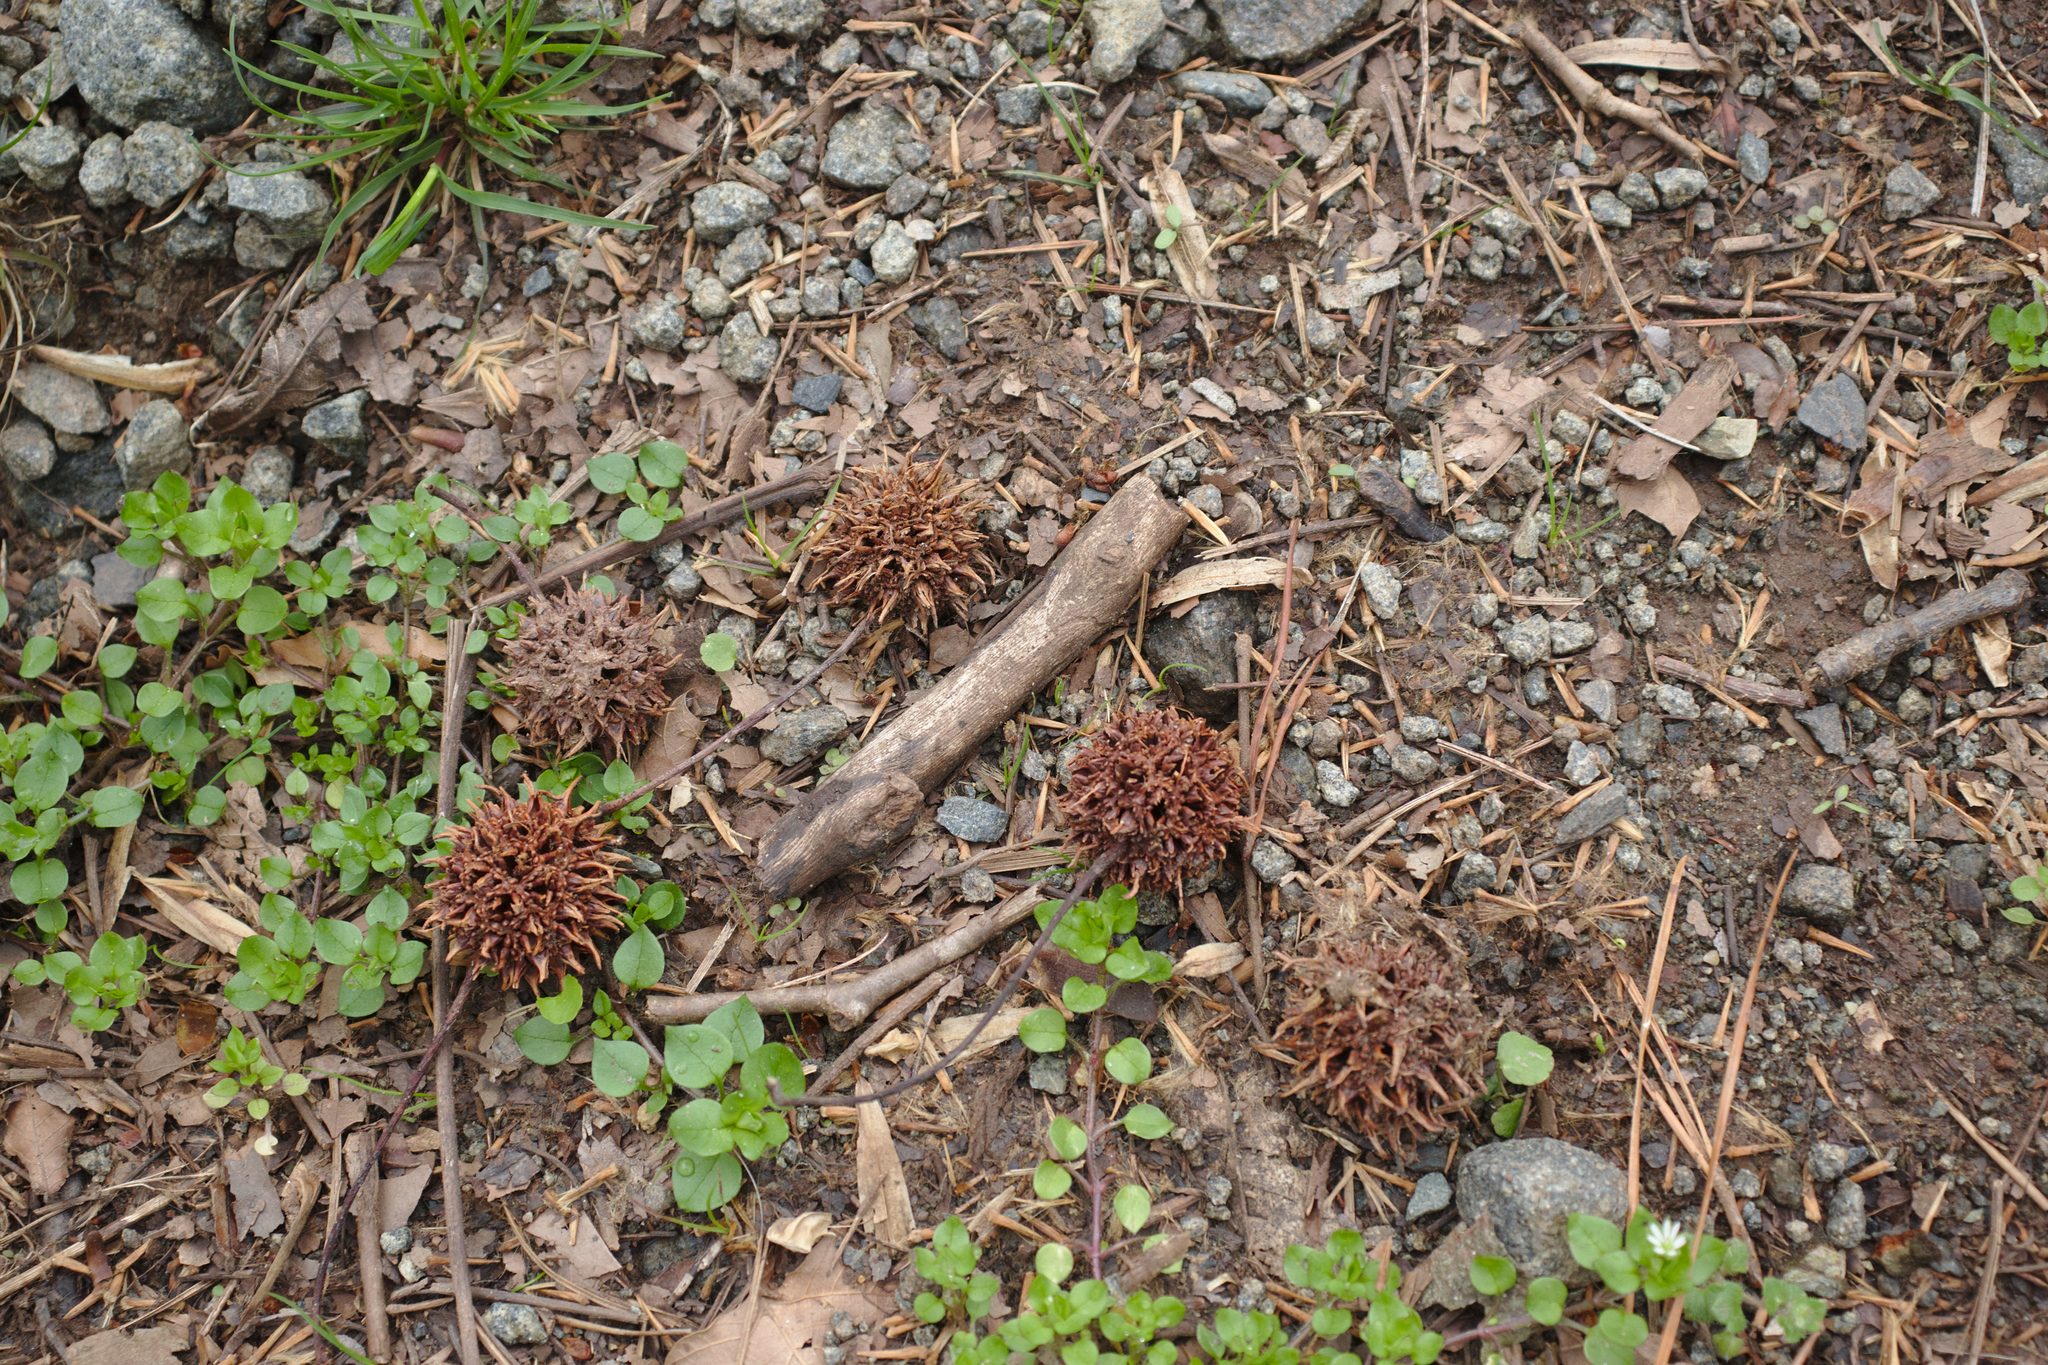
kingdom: Plantae
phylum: Tracheophyta
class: Magnoliopsida
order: Saxifragales
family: Altingiaceae
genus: Liquidambar
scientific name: Liquidambar styraciflua
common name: Sweet gum
